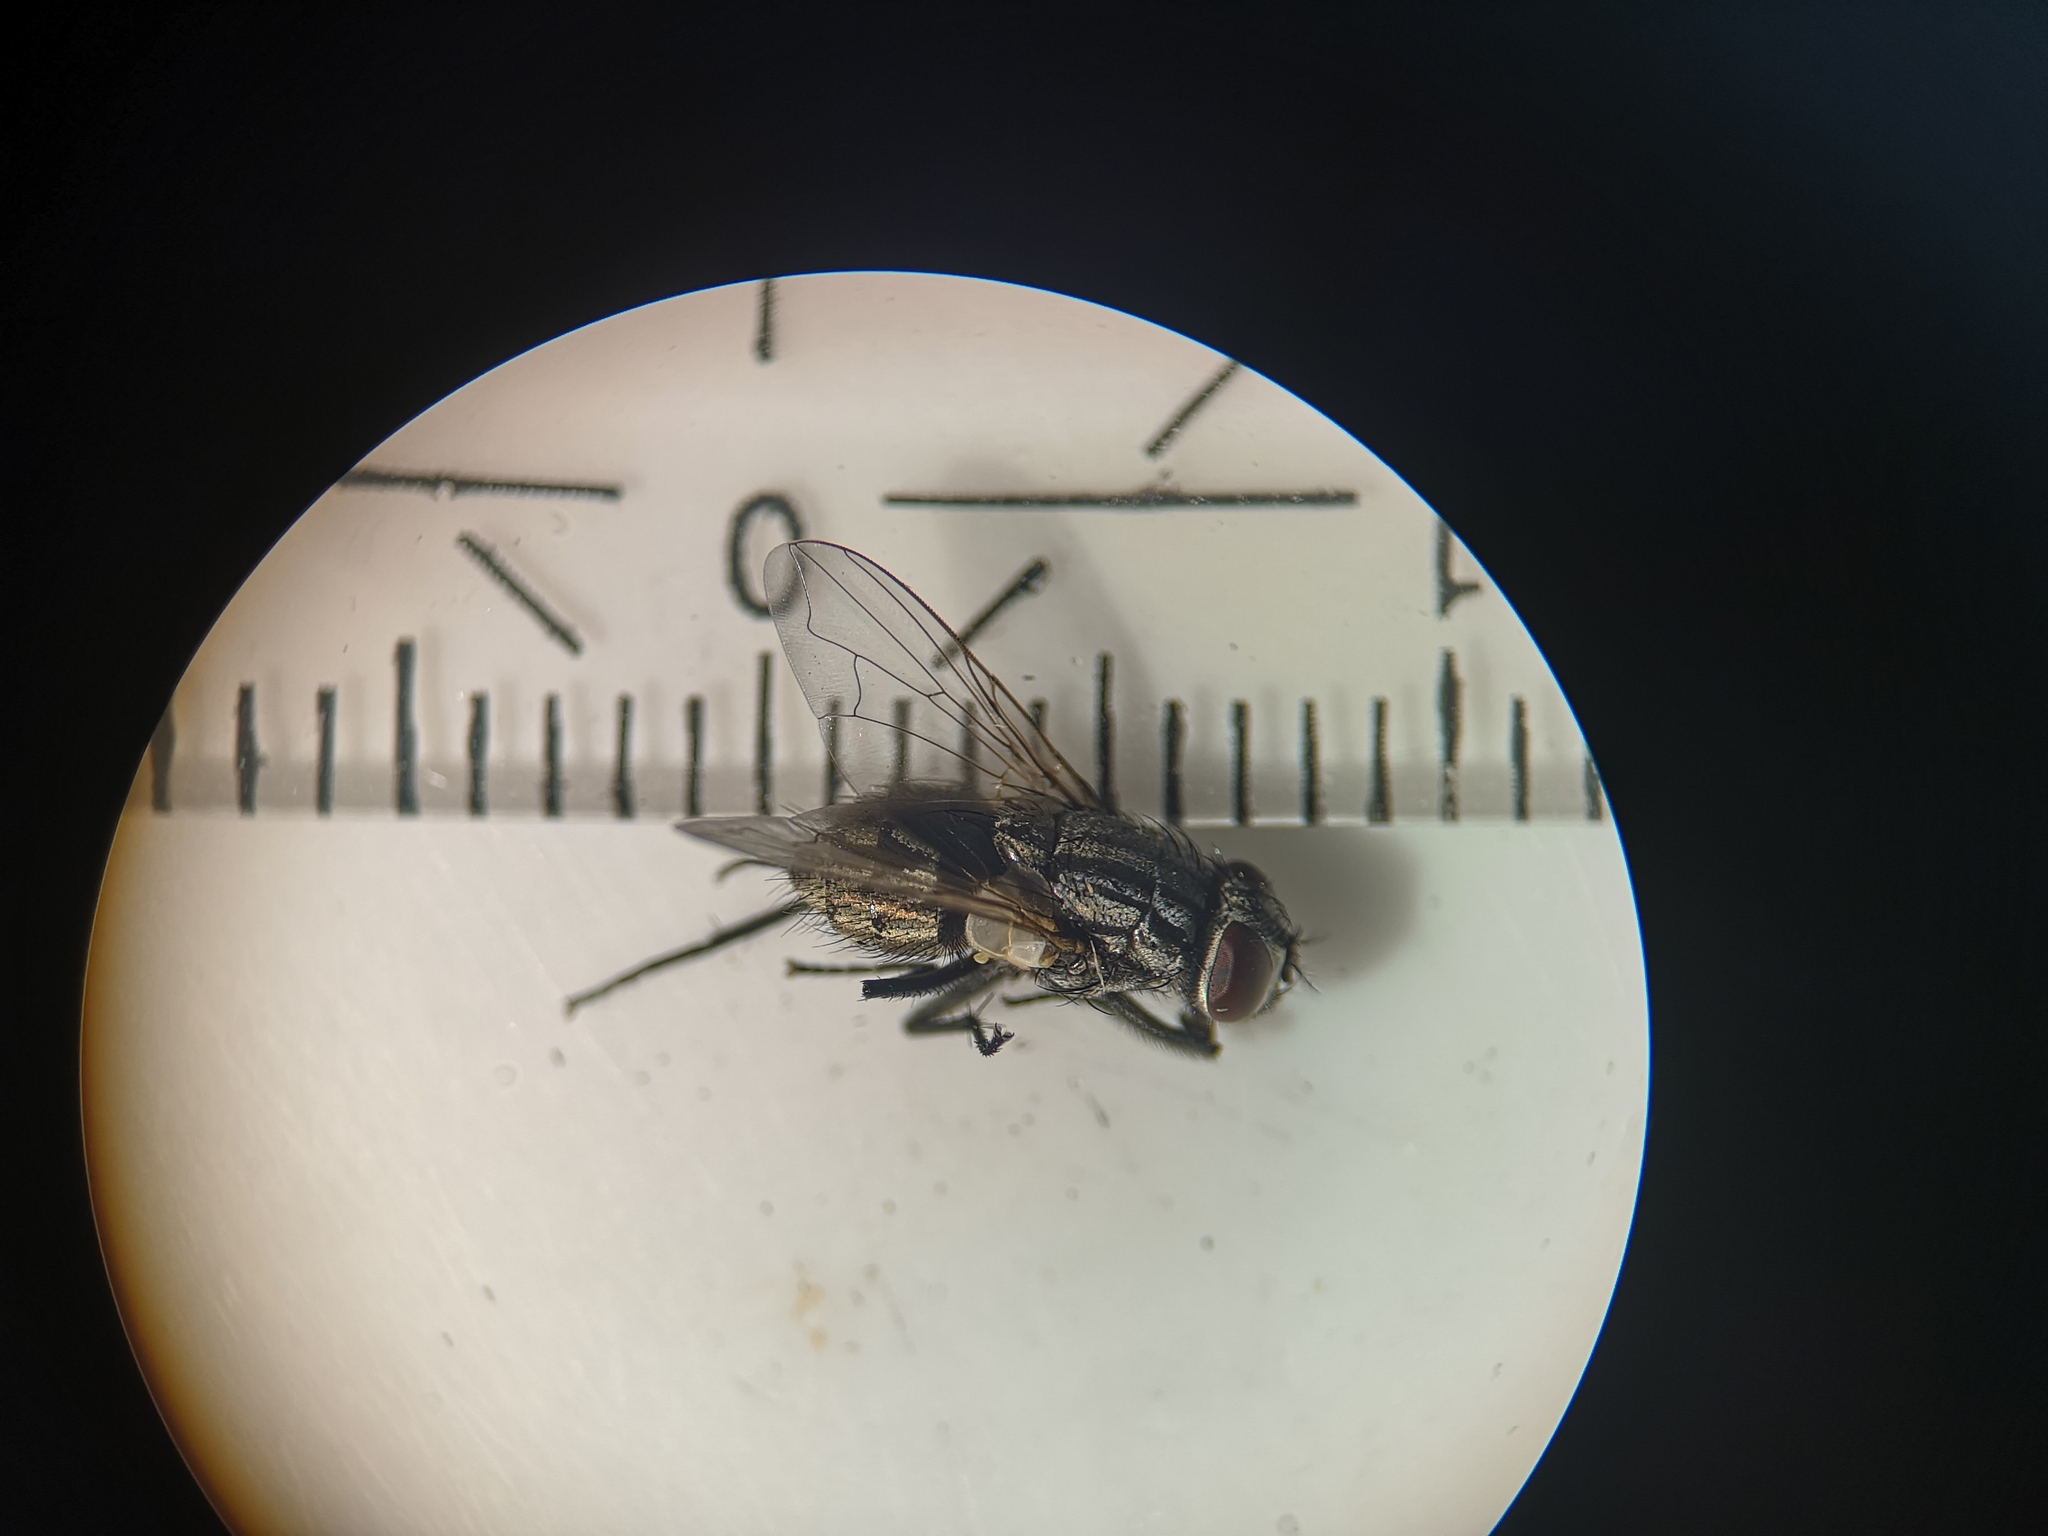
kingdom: Animalia
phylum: Arthropoda
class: Insecta
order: Diptera
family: Muscidae
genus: Musca
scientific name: Musca autumnalis
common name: Face fly
